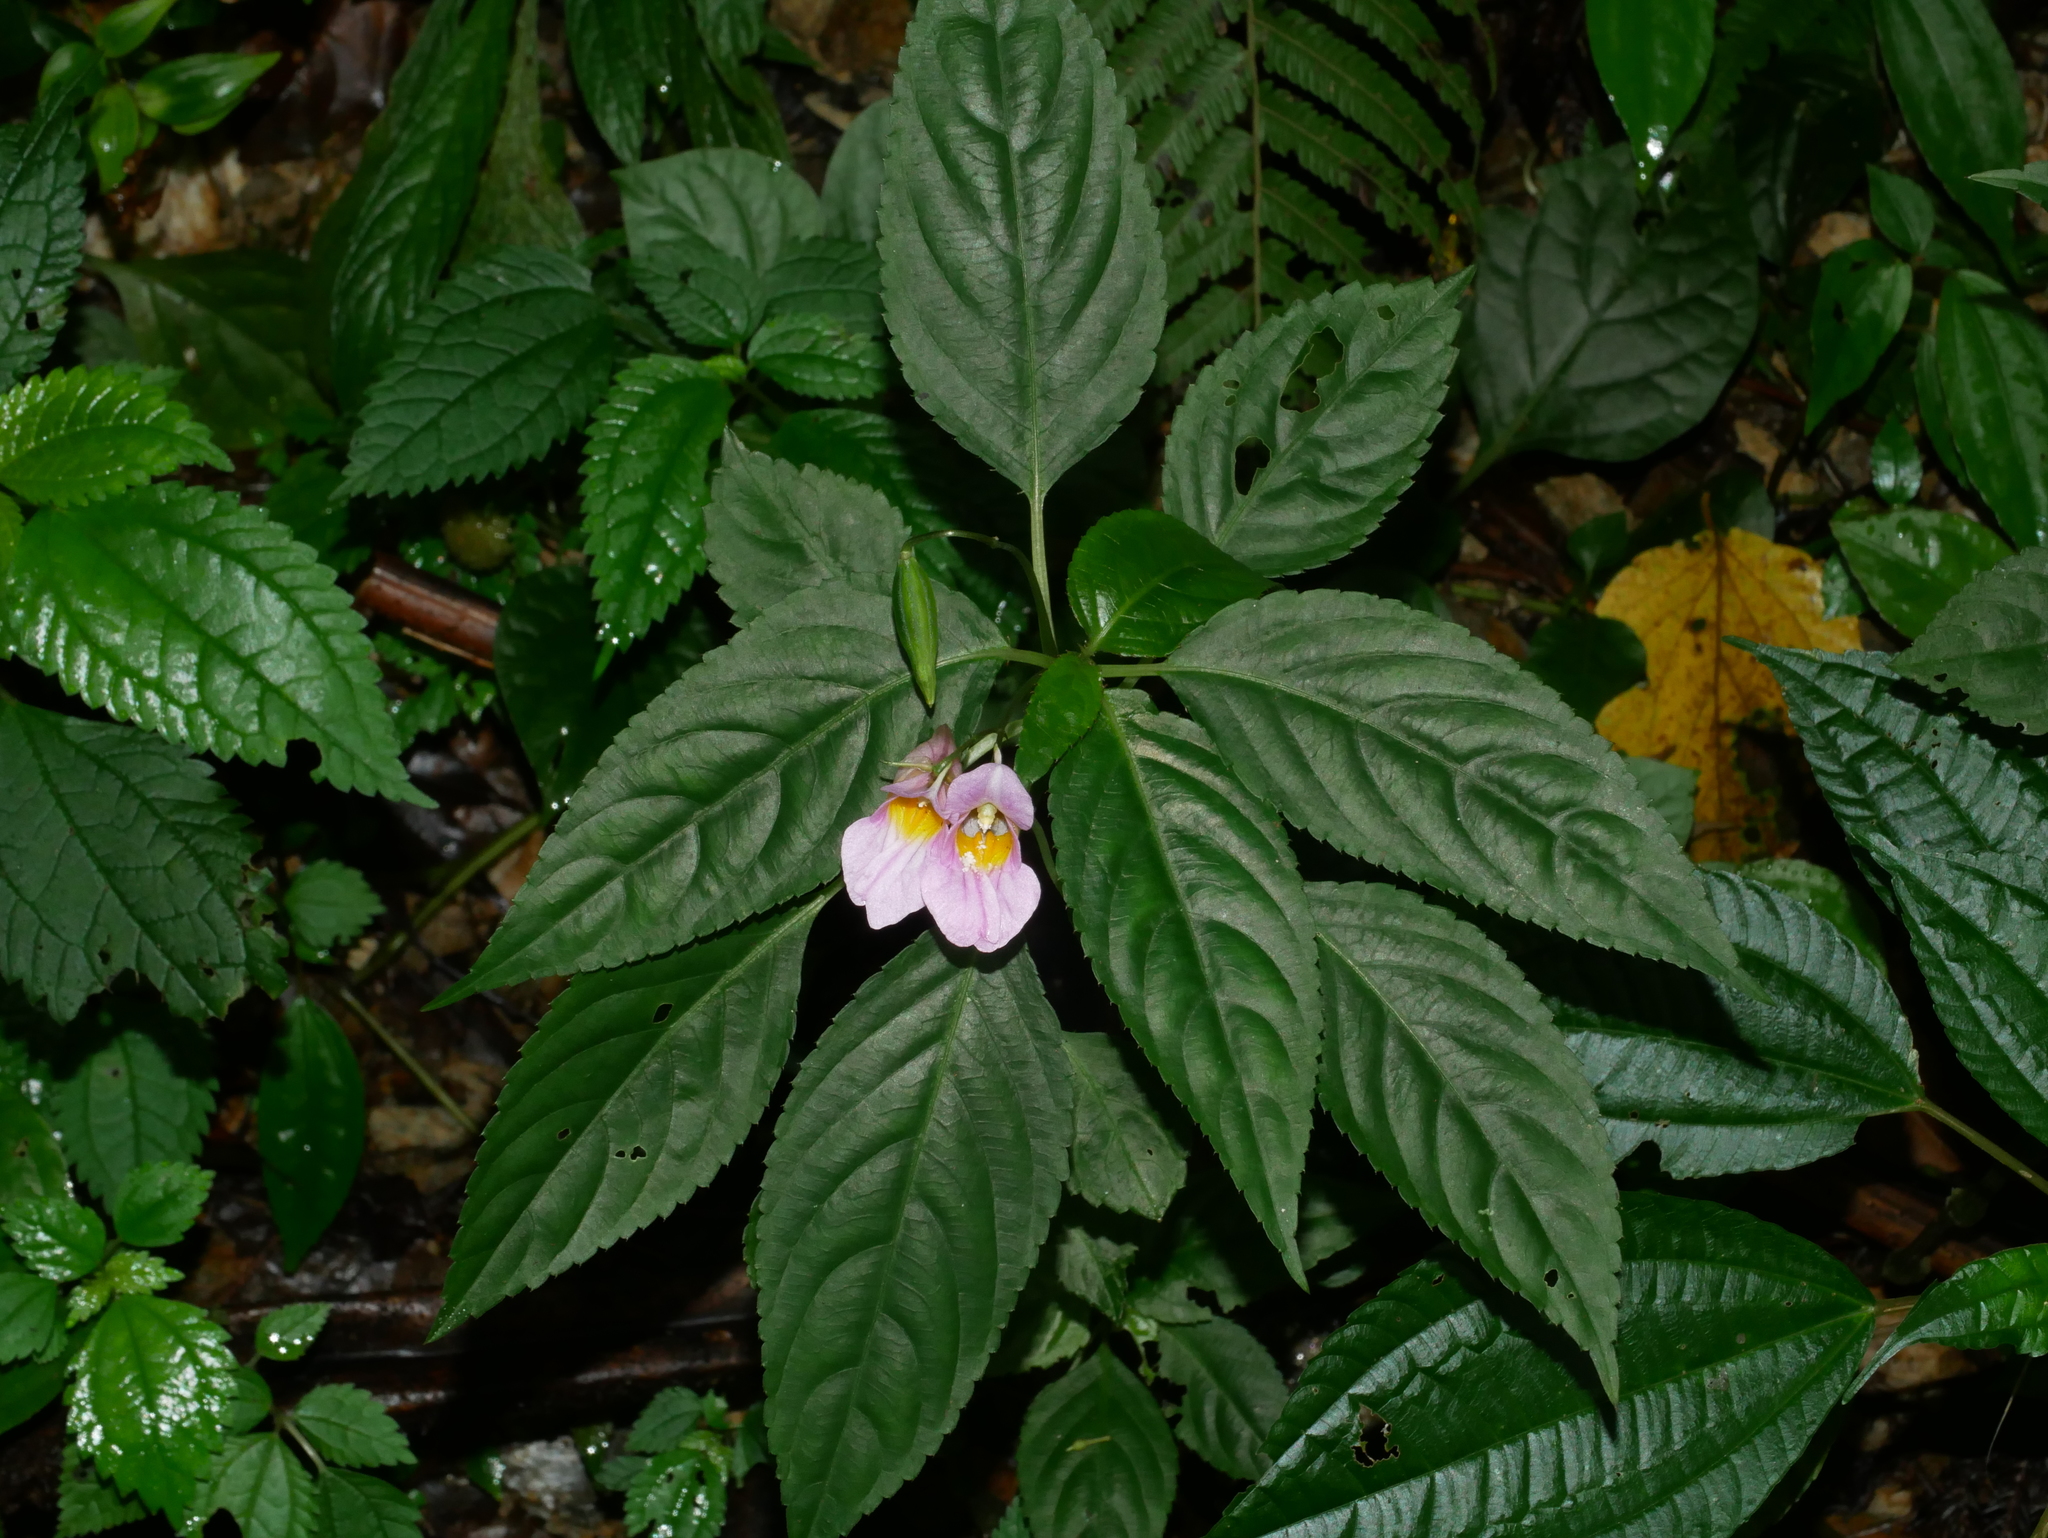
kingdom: Plantae
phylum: Tracheophyta
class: Magnoliopsida
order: Ericales
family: Balsaminaceae
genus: Impatiens
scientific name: Impatiens uniflora
